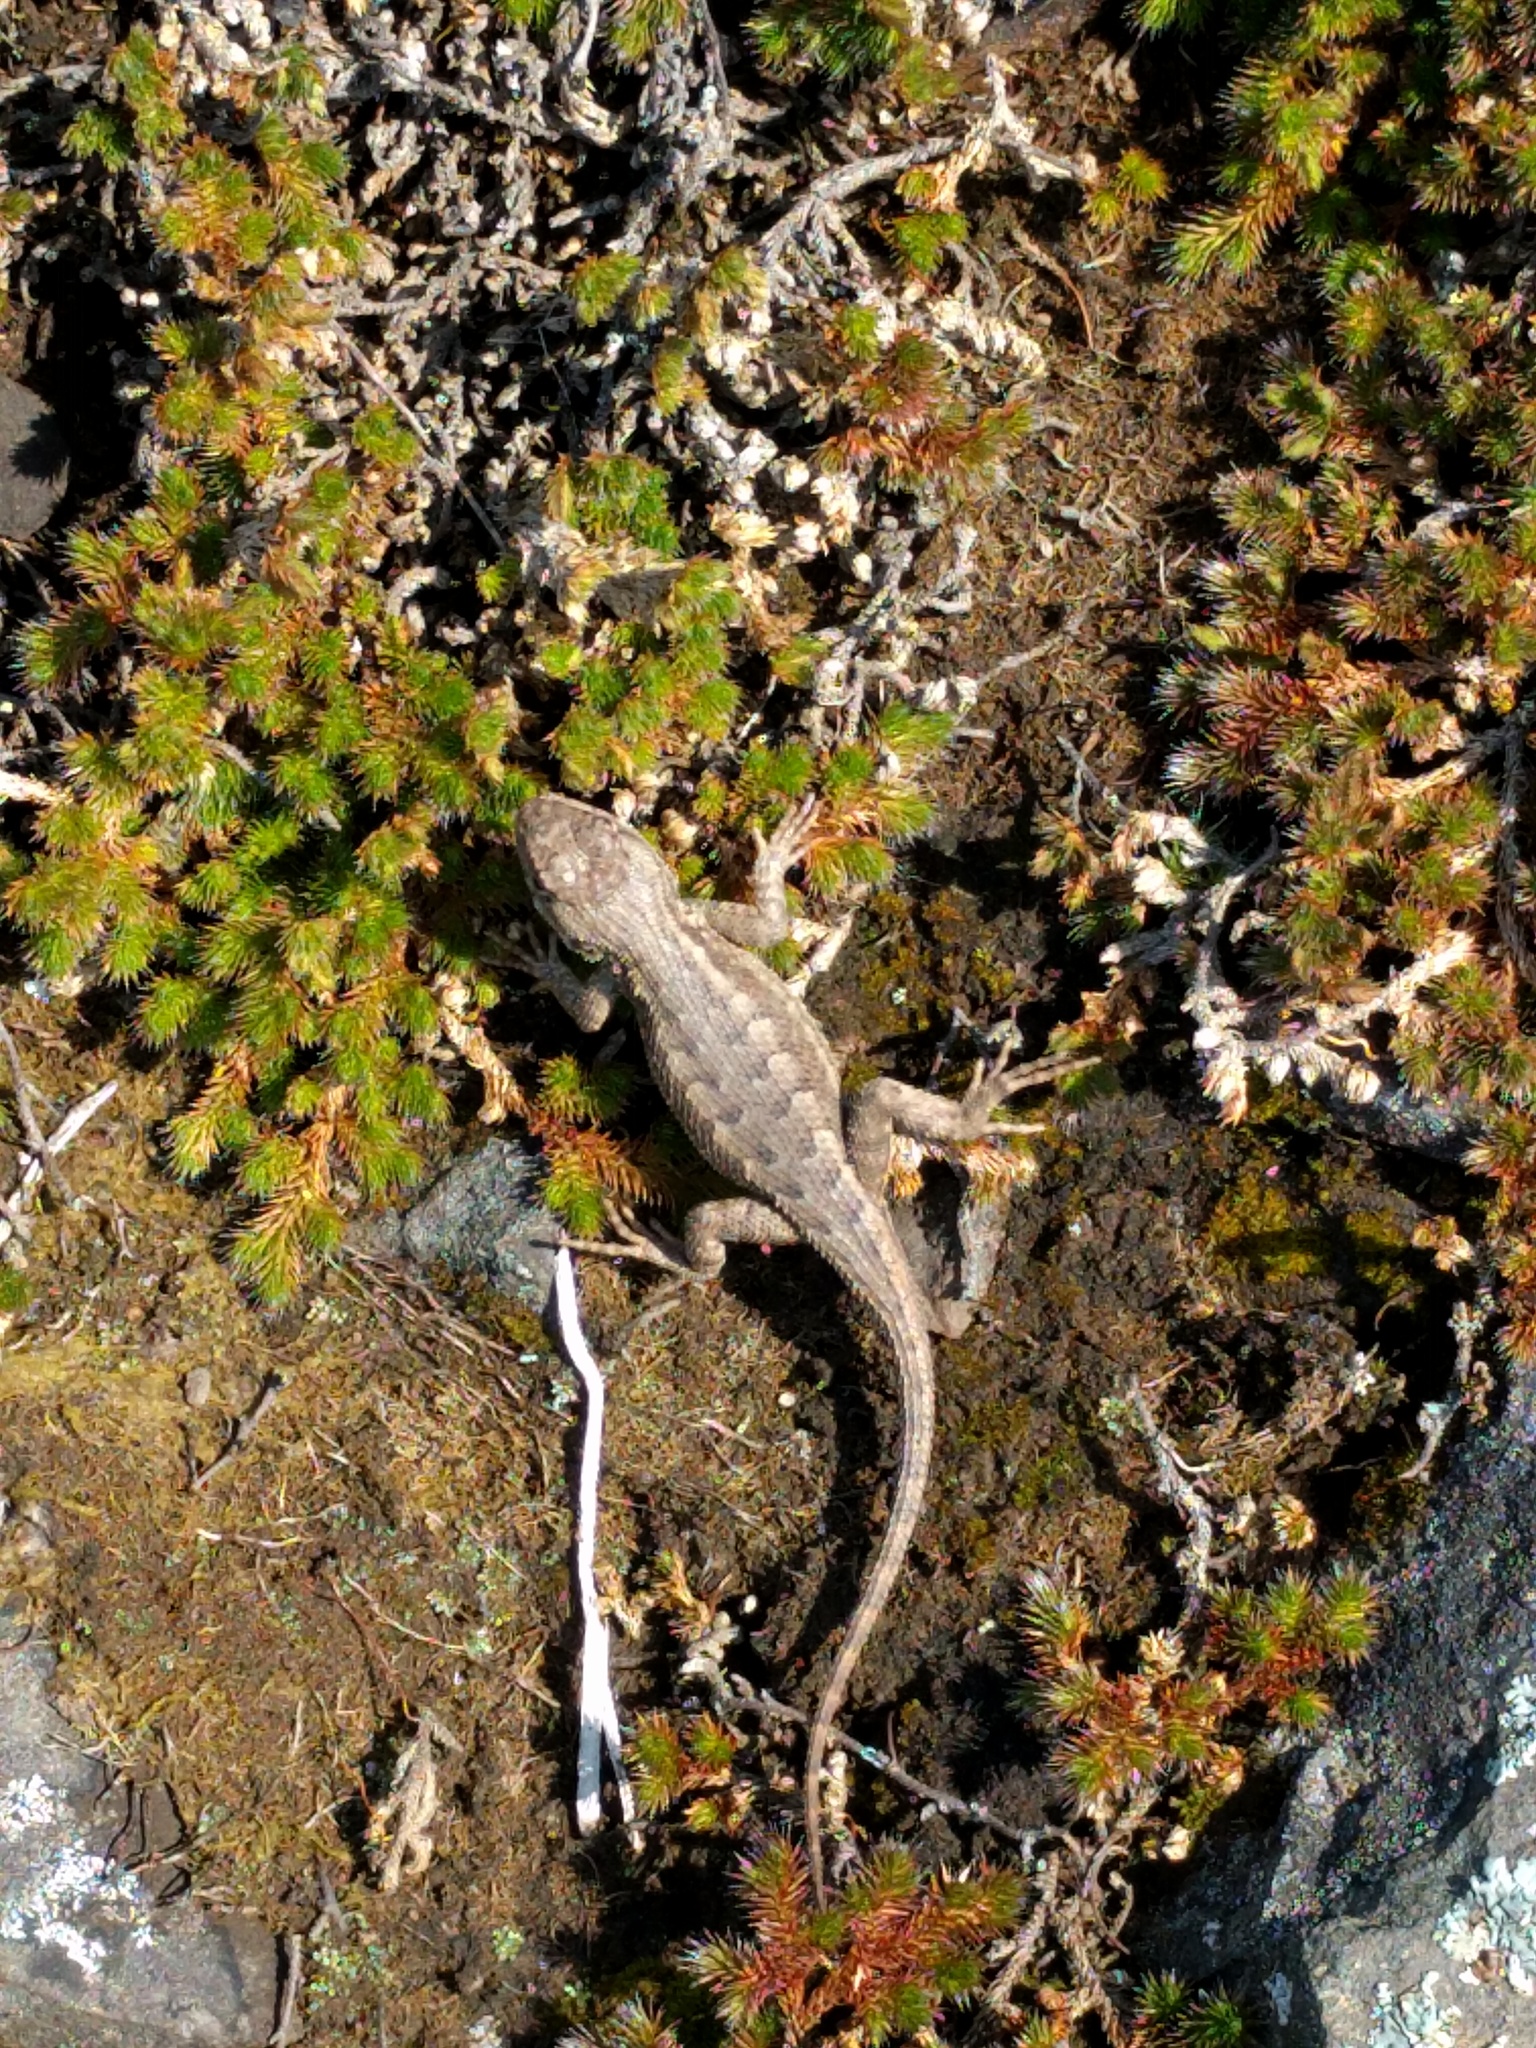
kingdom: Animalia
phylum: Chordata
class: Squamata
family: Phrynosomatidae
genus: Sceloporus
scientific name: Sceloporus occidentalis
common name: Western fence lizard
